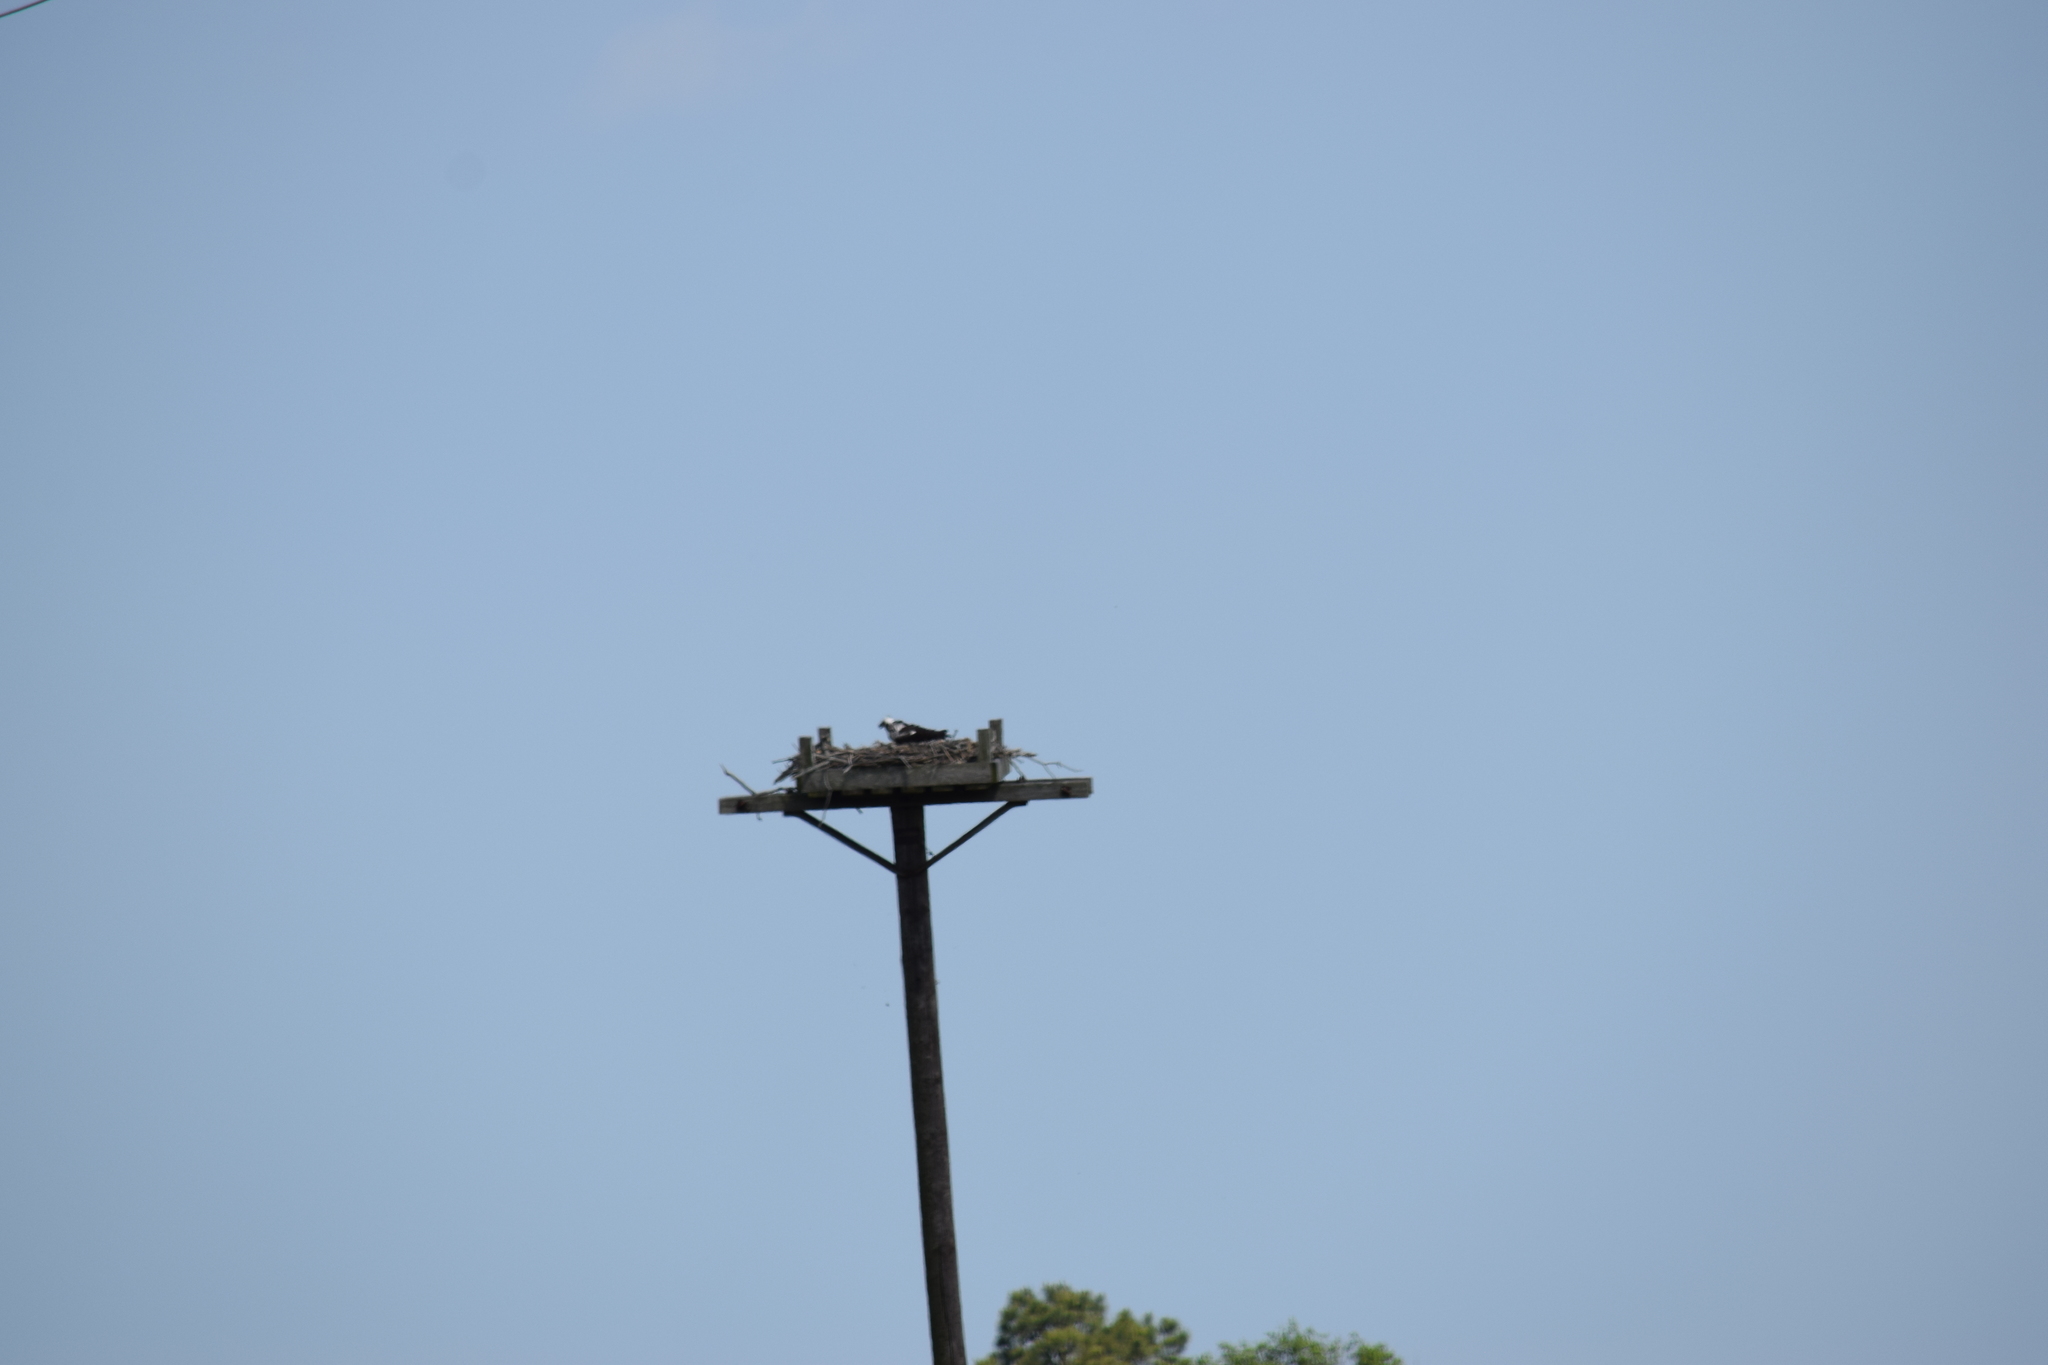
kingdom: Animalia
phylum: Chordata
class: Aves
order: Accipitriformes
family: Pandionidae
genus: Pandion
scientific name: Pandion haliaetus
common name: Osprey
